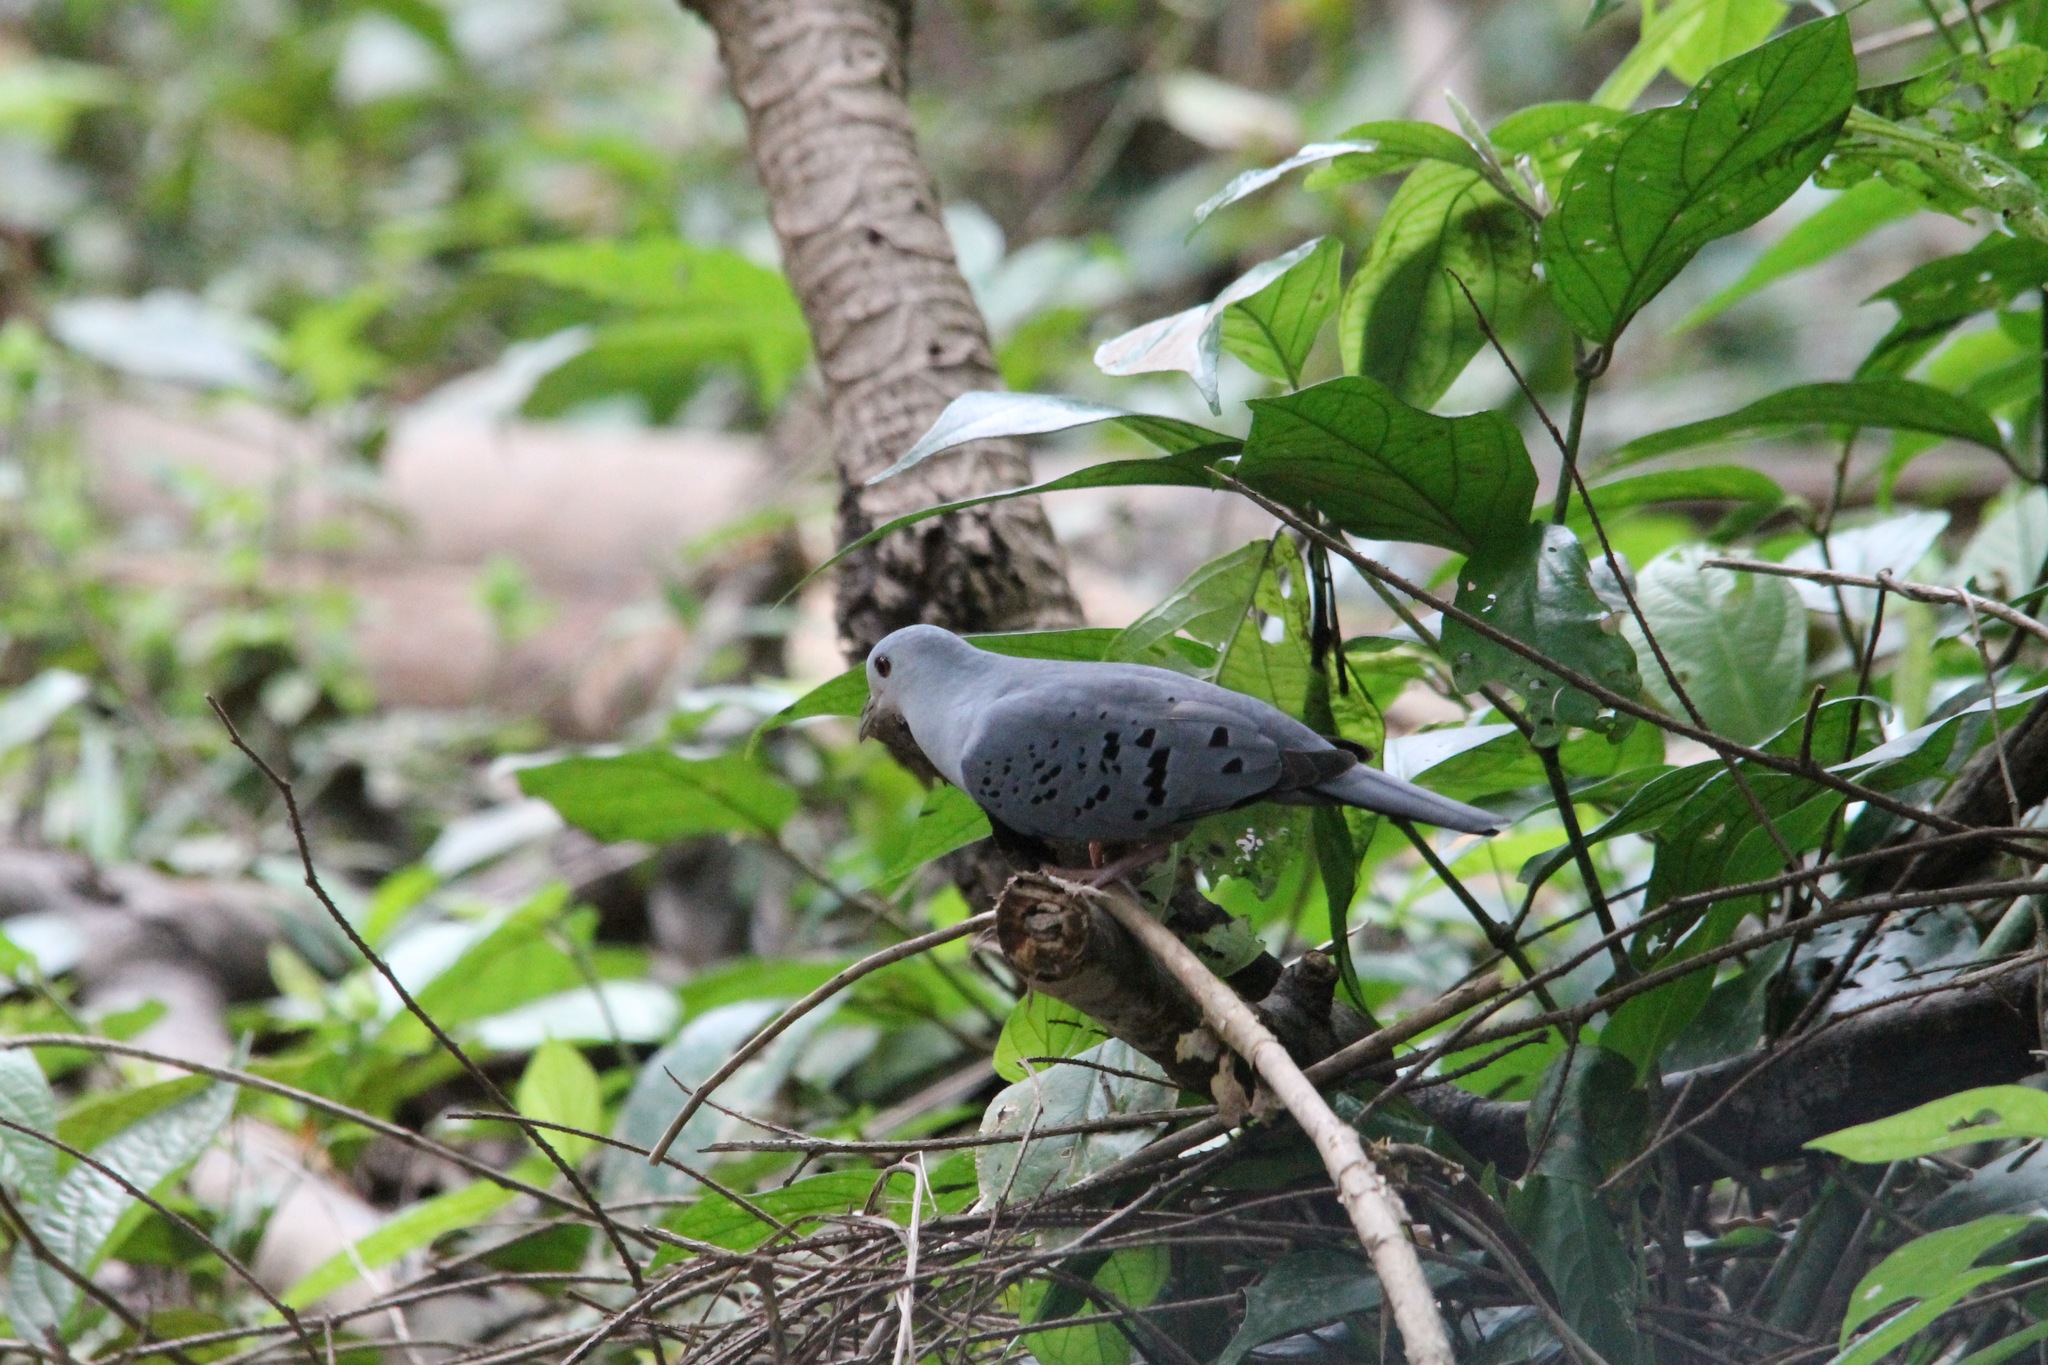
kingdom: Animalia
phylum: Chordata
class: Aves
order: Columbiformes
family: Columbidae
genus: Claravis
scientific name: Claravis pretiosa
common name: Blue ground-dove
